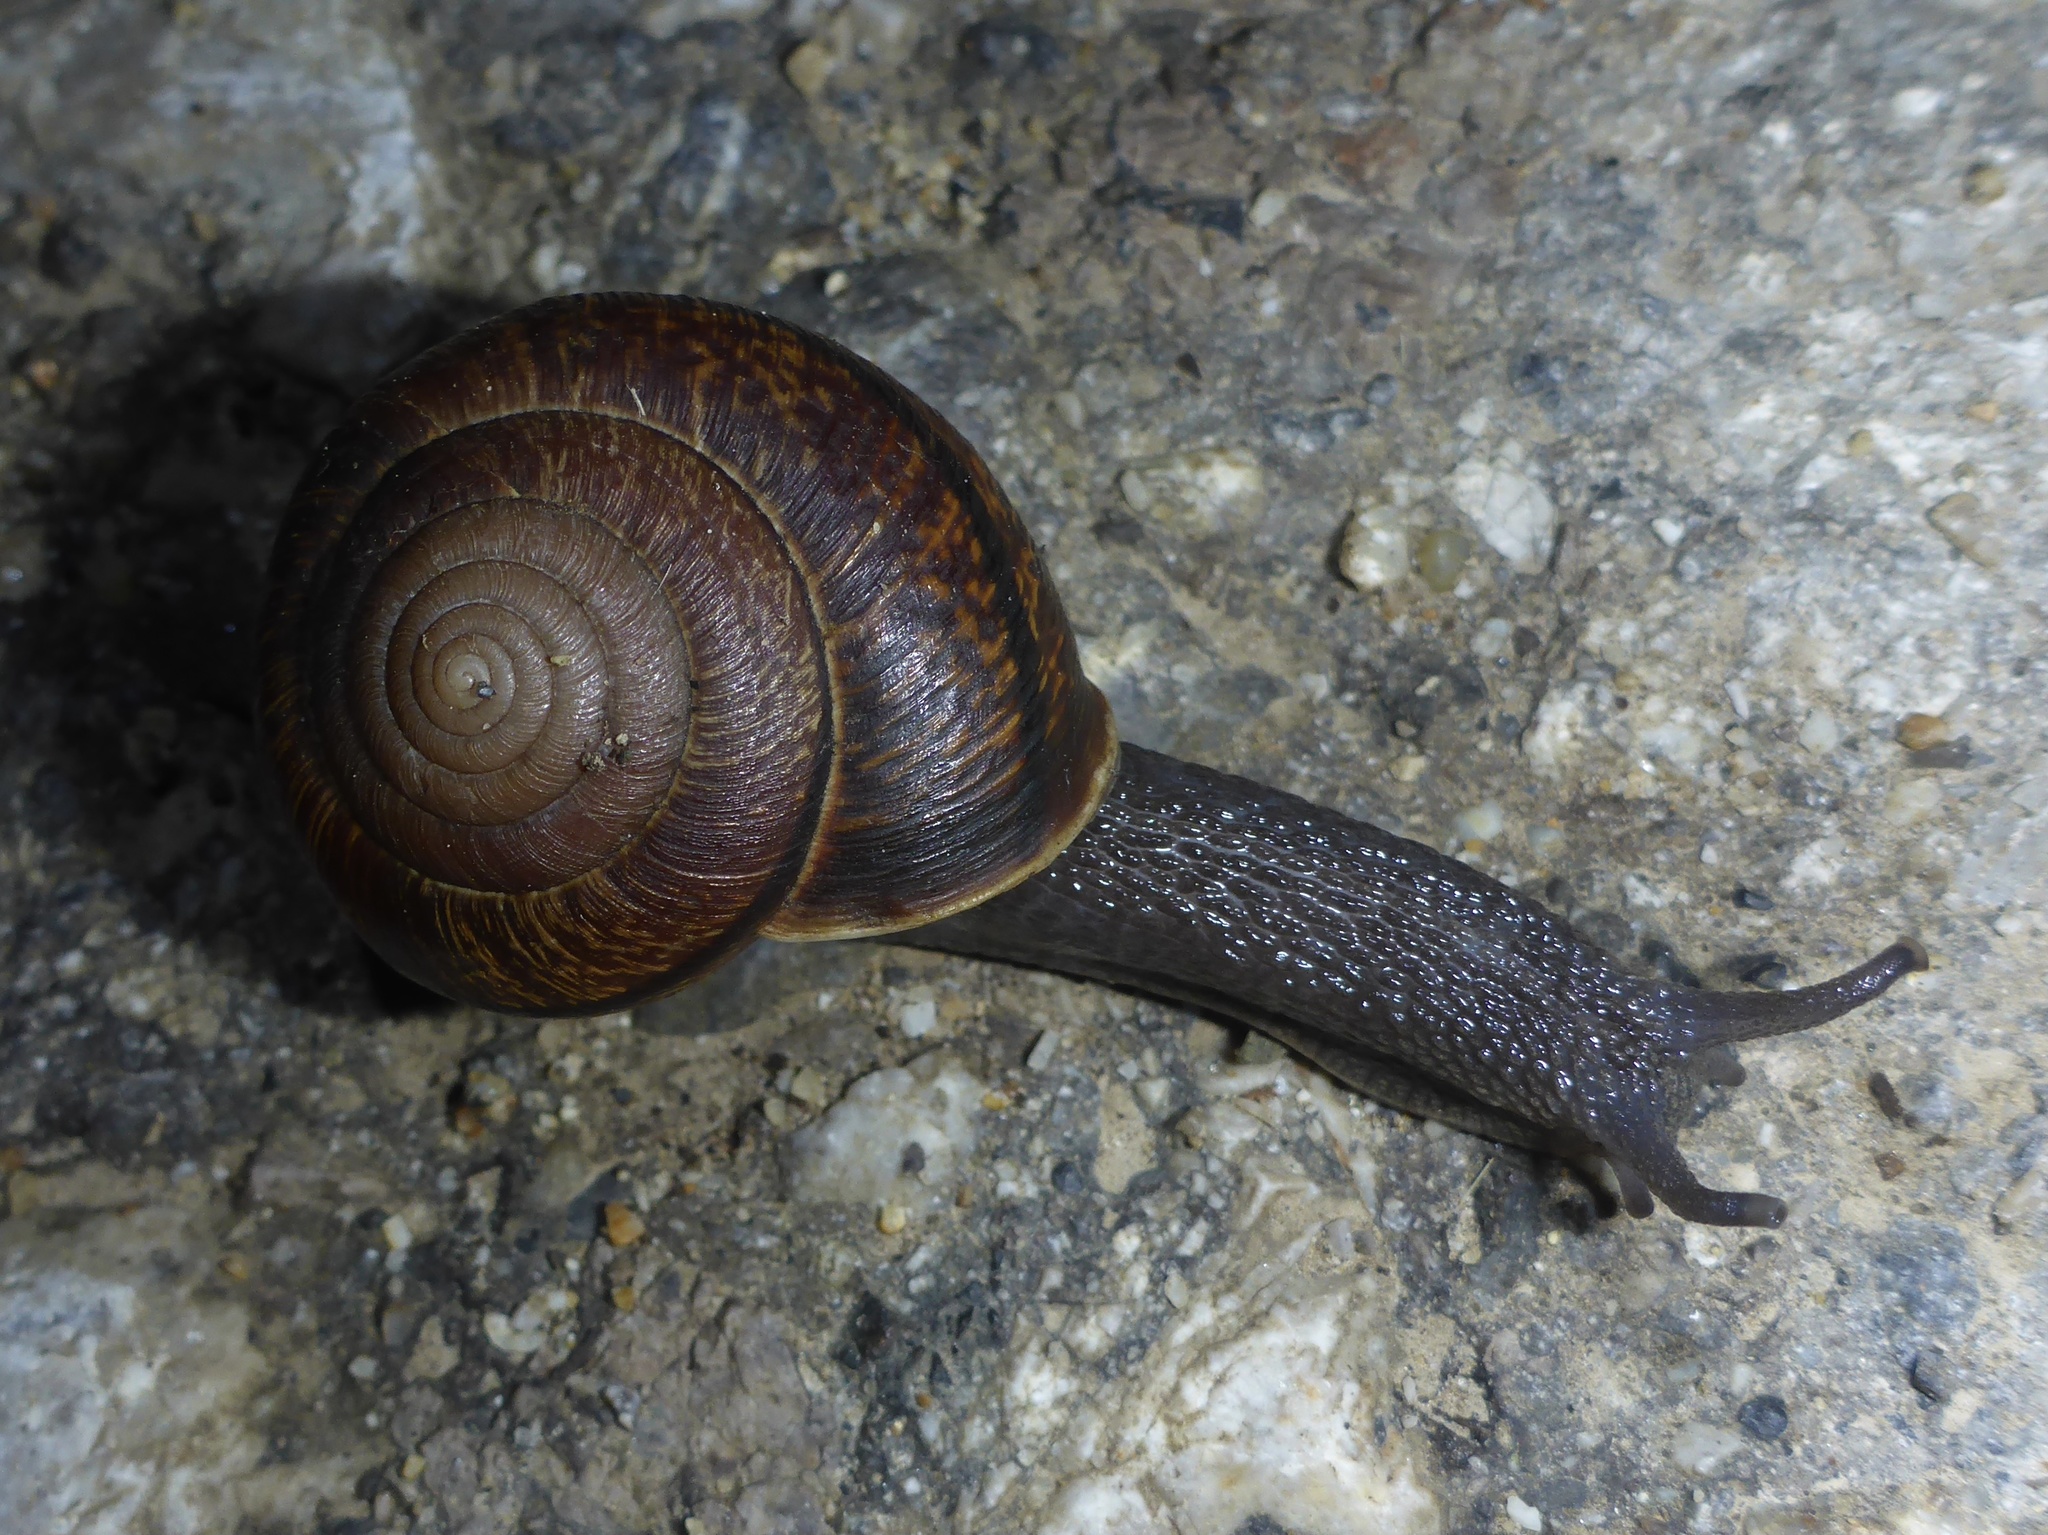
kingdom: Animalia
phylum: Mollusca
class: Gastropoda
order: Stylommatophora
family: Xanthonychidae
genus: Helminthoglypta
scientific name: Helminthoglypta arrosa
